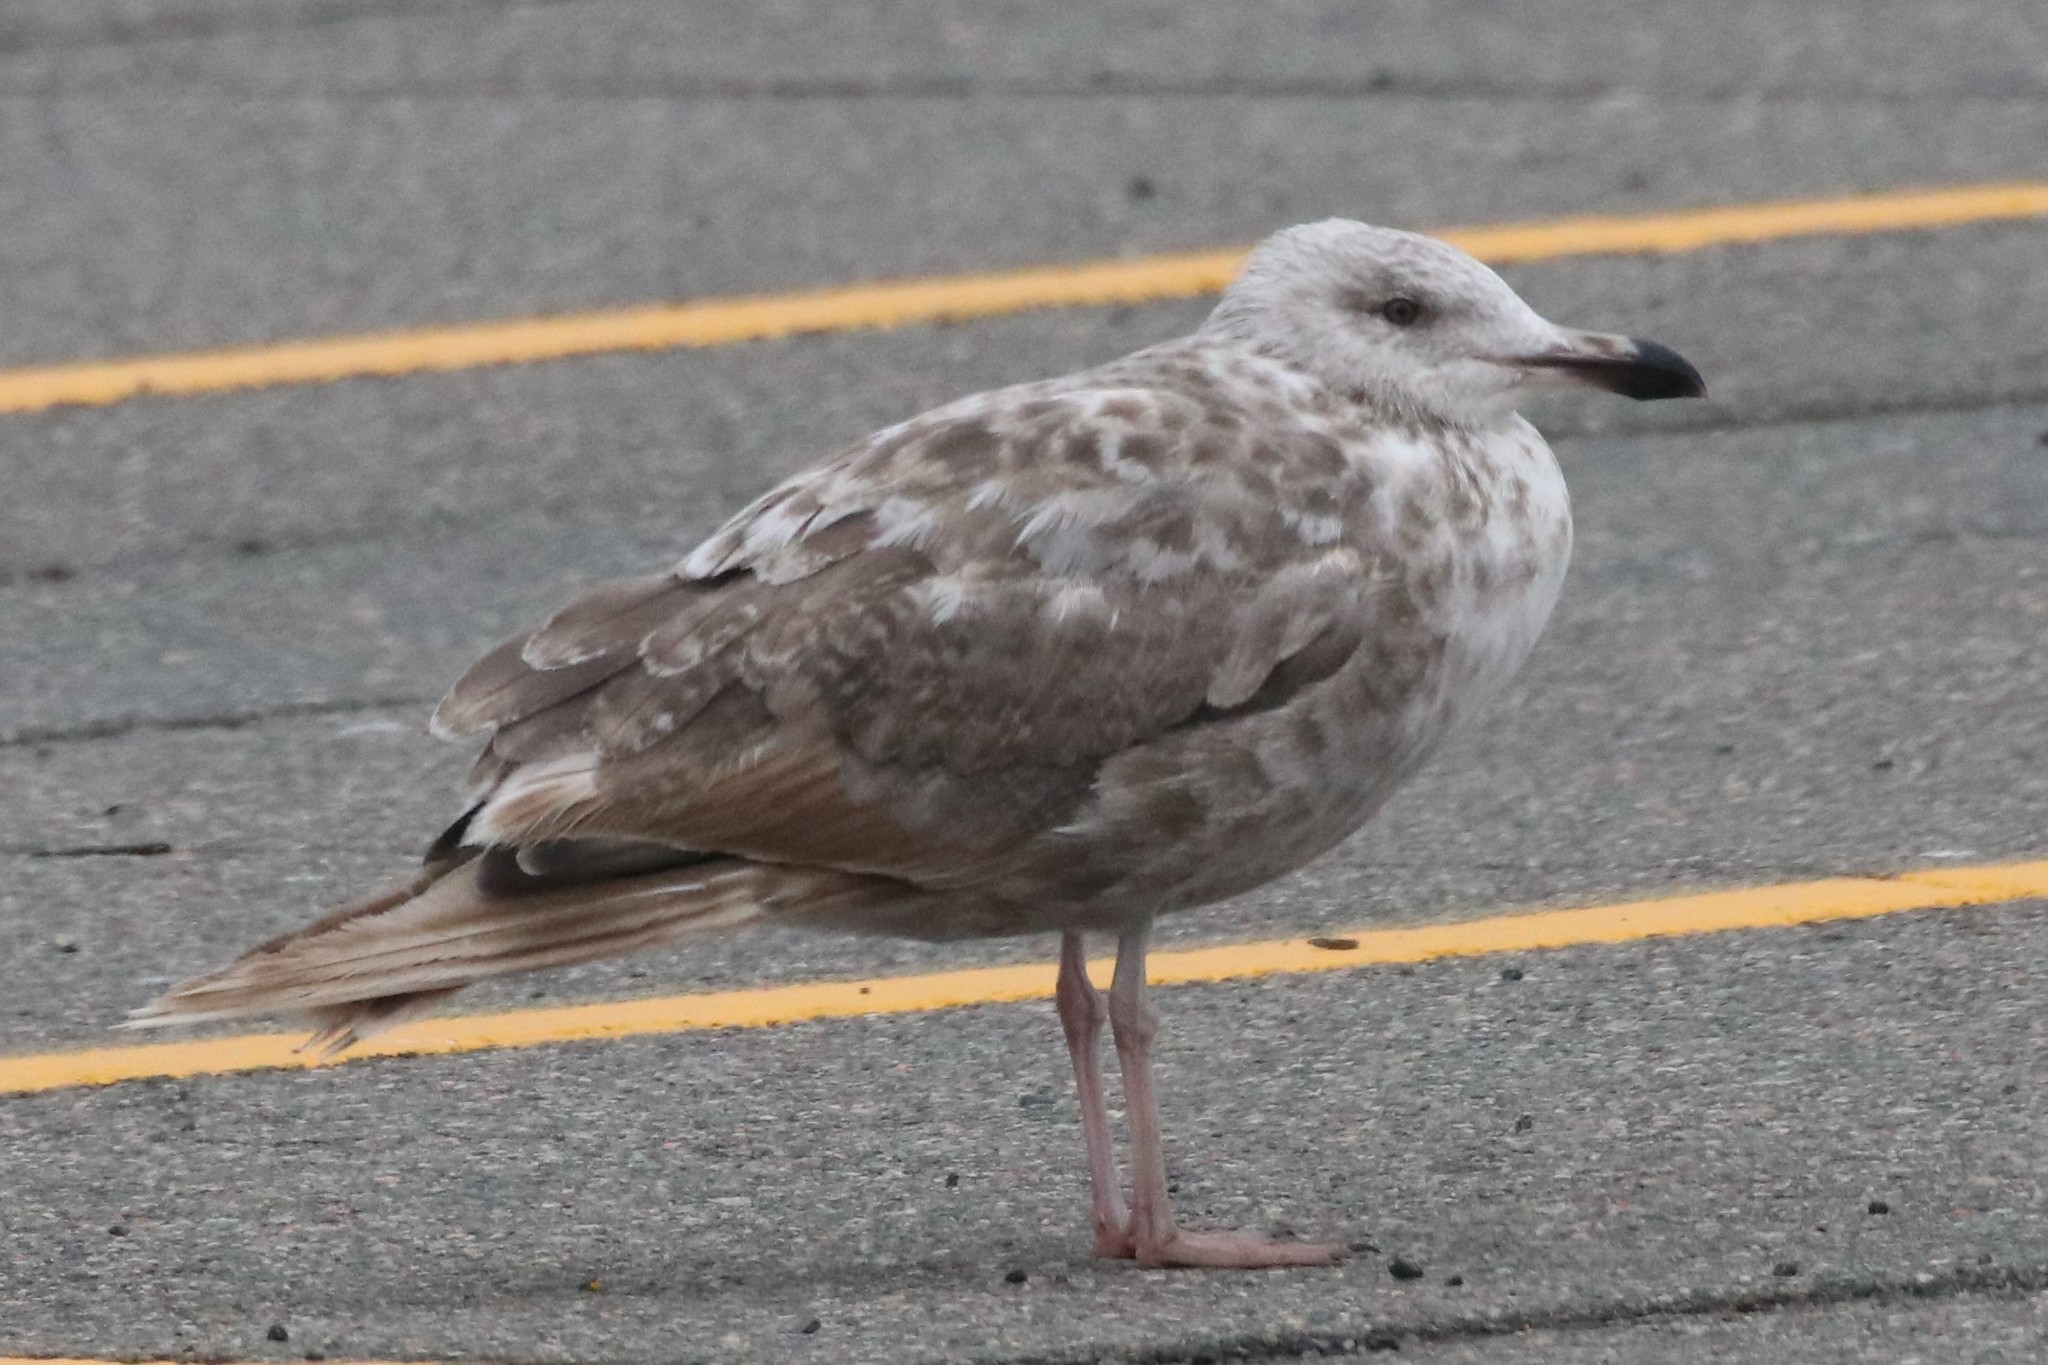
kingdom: Animalia
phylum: Chordata
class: Aves
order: Charadriiformes
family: Laridae
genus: Larus
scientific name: Larus argentatus
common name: Herring gull
